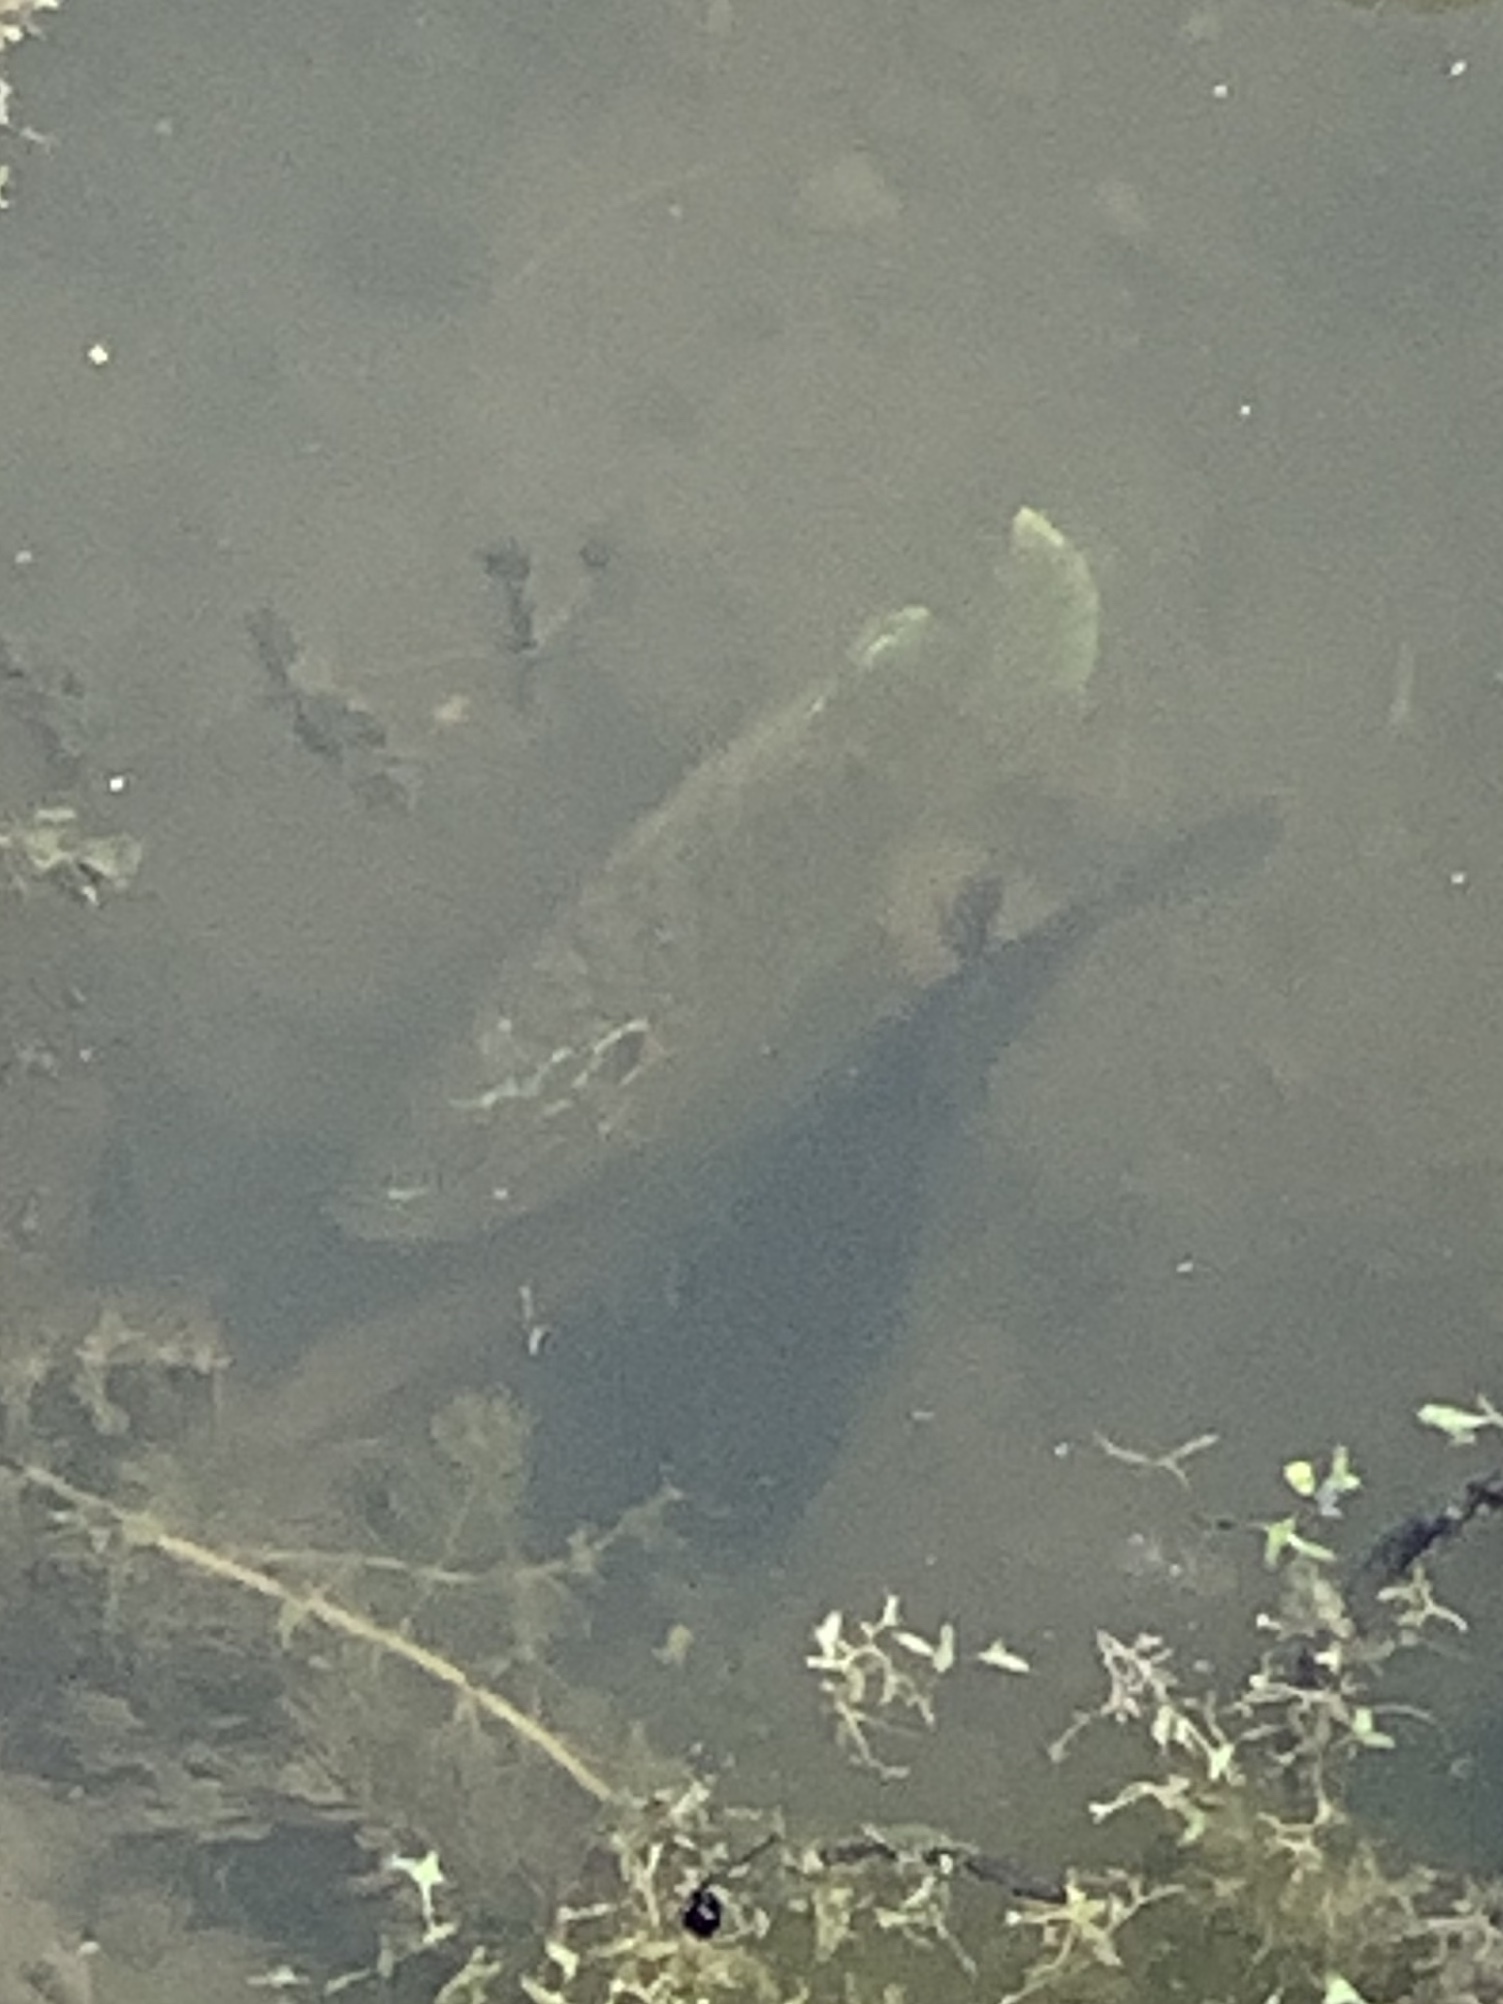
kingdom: Animalia
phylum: Chordata
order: Perciformes
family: Centrarchidae
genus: Lepomis
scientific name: Lepomis gibbosus
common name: Pumpkinseed
